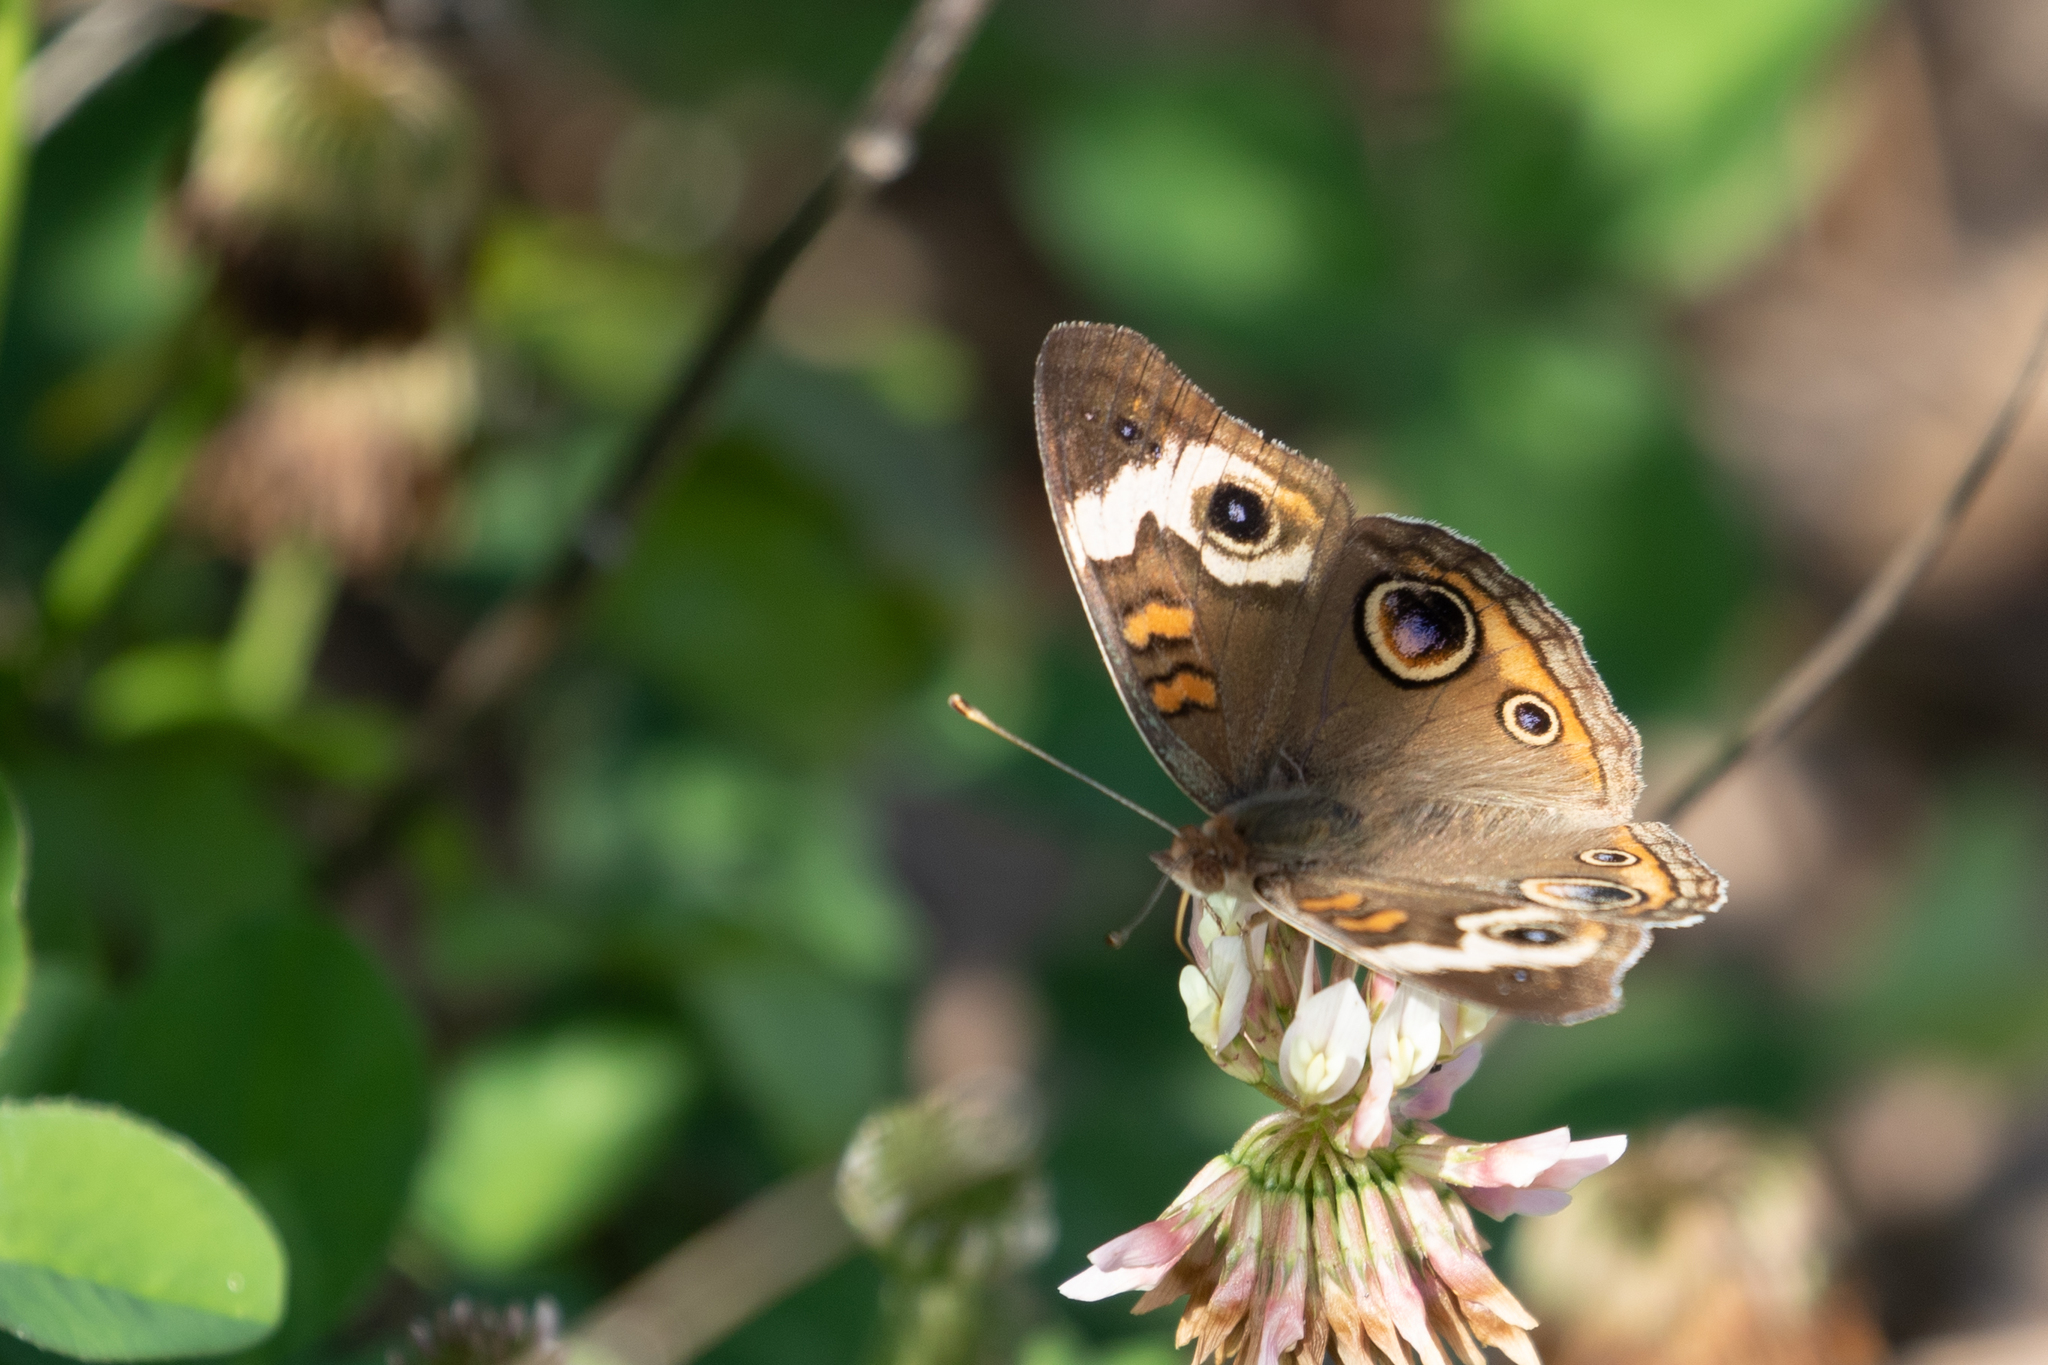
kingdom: Animalia
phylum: Arthropoda
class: Insecta
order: Lepidoptera
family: Nymphalidae
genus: Junonia
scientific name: Junonia coenia
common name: Common buckeye
